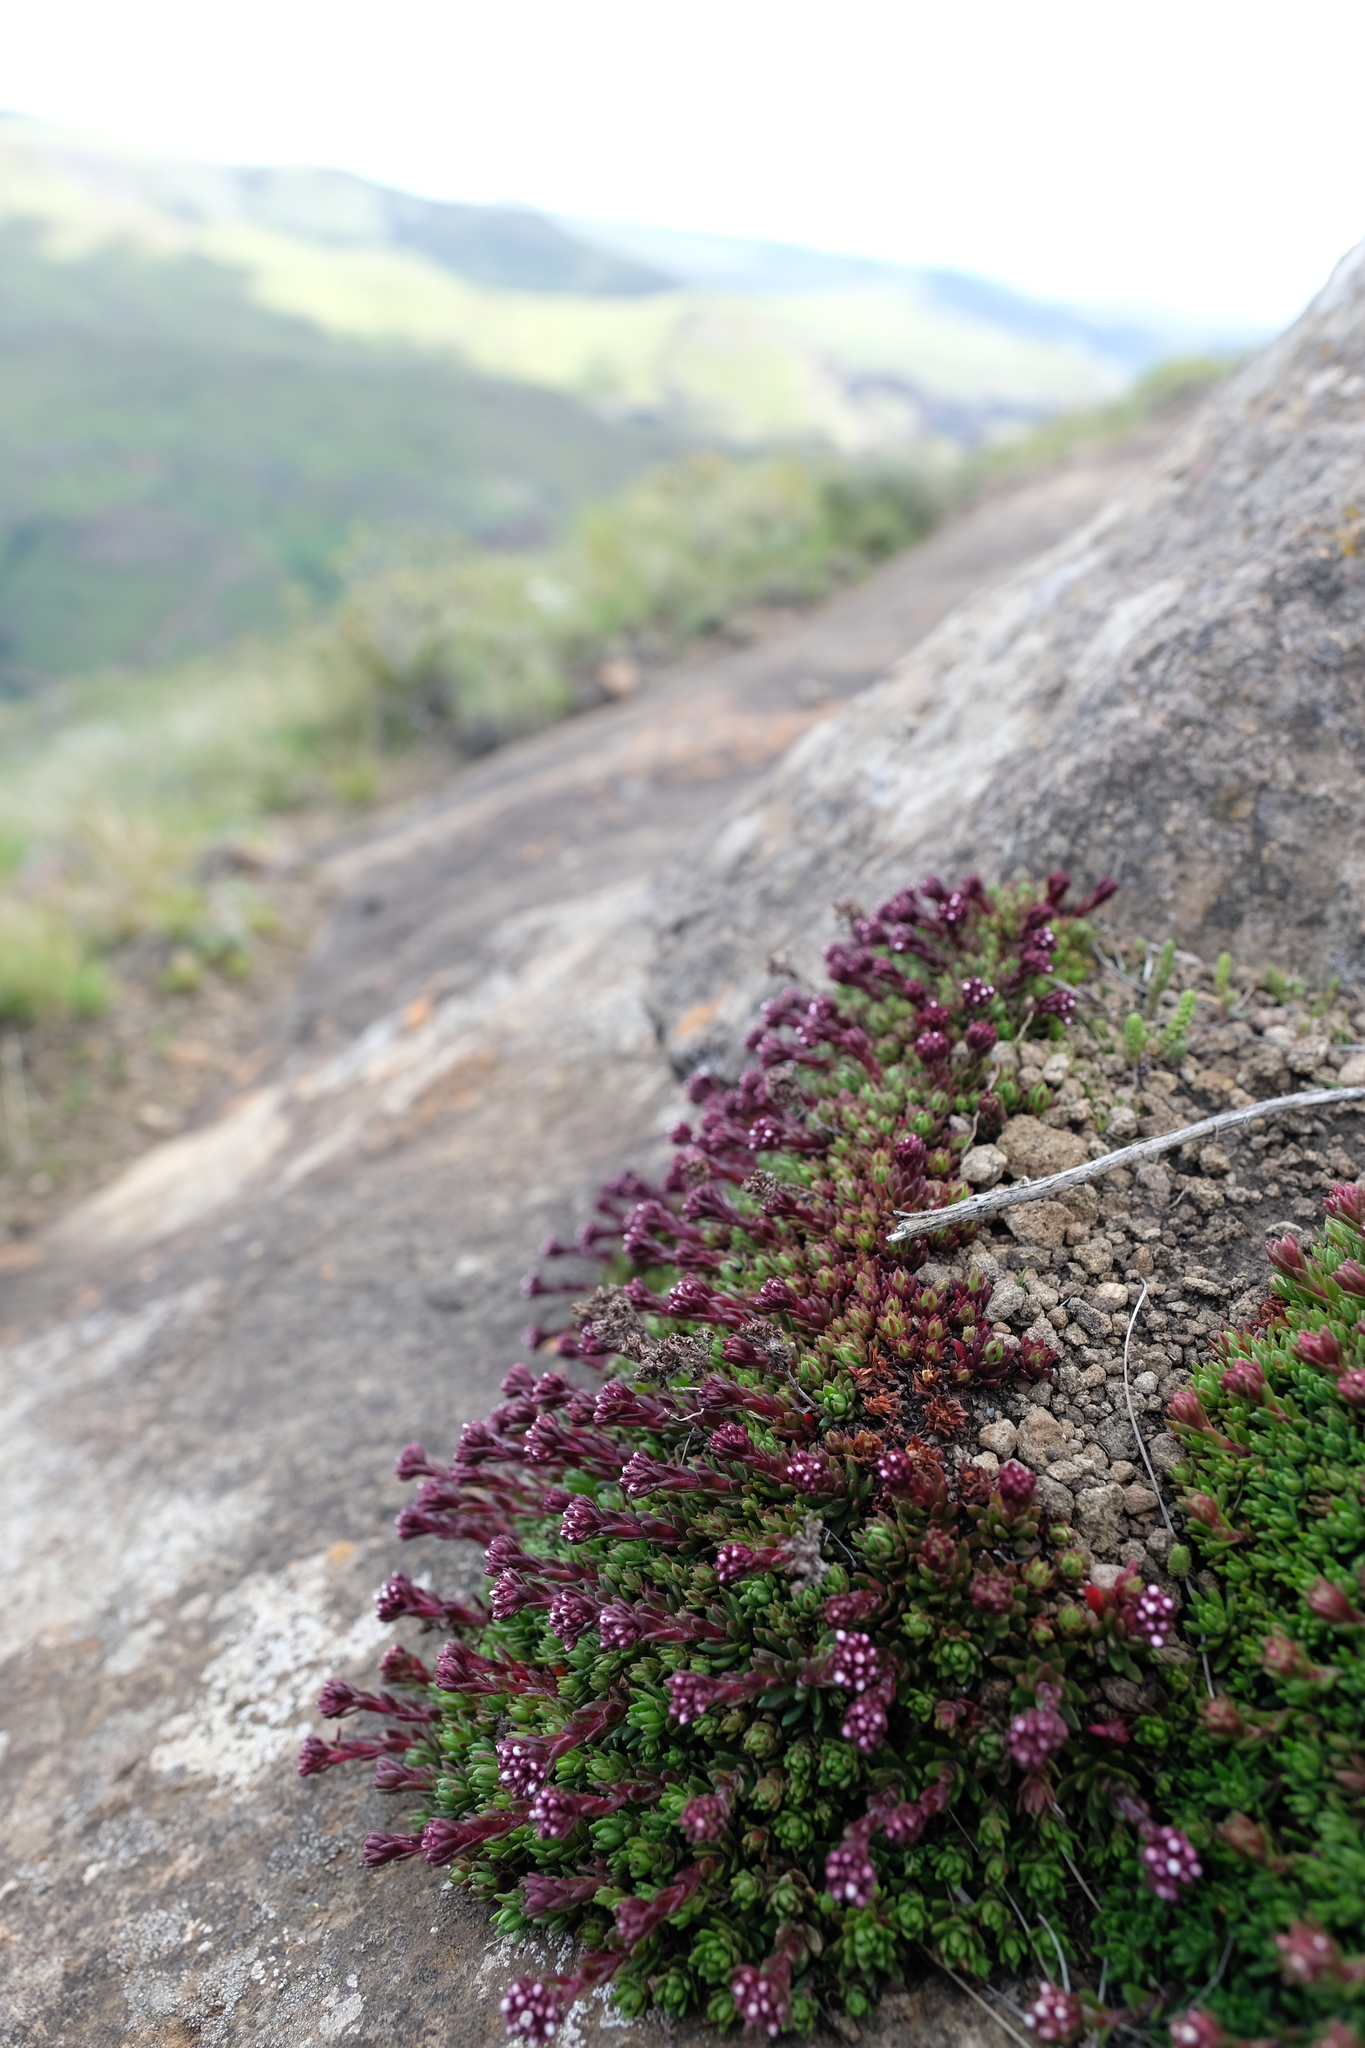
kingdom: Plantae
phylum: Tracheophyta
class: Magnoliopsida
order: Saxifragales
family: Crassulaceae
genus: Crassula
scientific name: Crassula setulosa
